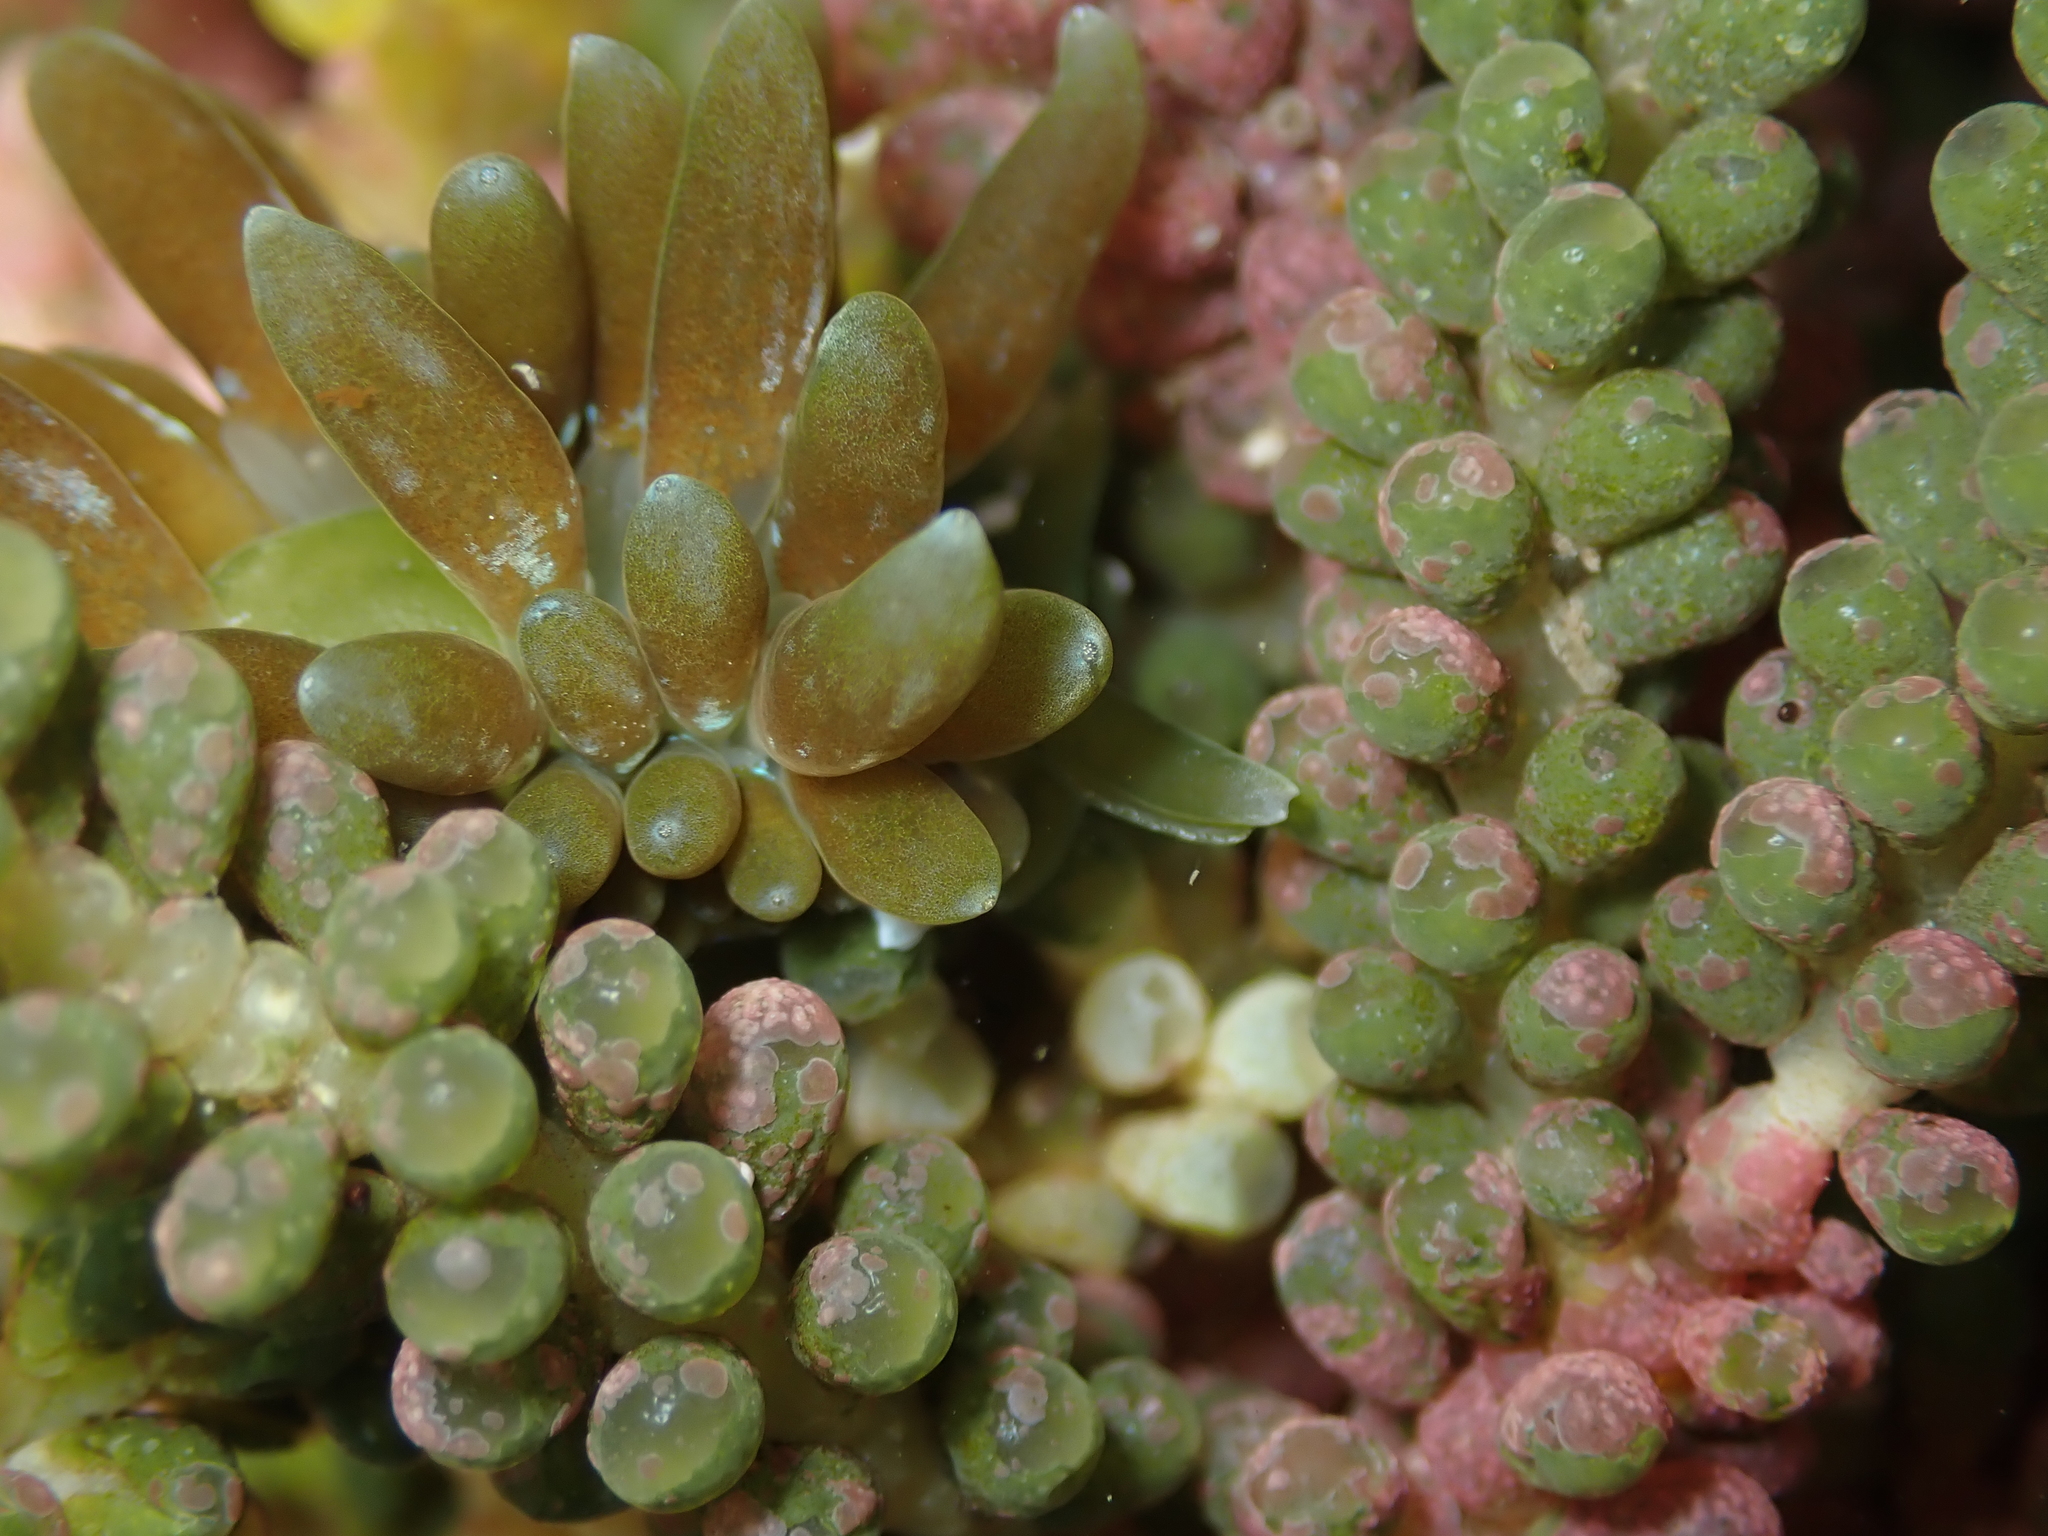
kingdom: Animalia
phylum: Mollusca
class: Gastropoda
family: Limapontiidae
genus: Sacoproteus
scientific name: Sacoproteus smaragdinus
